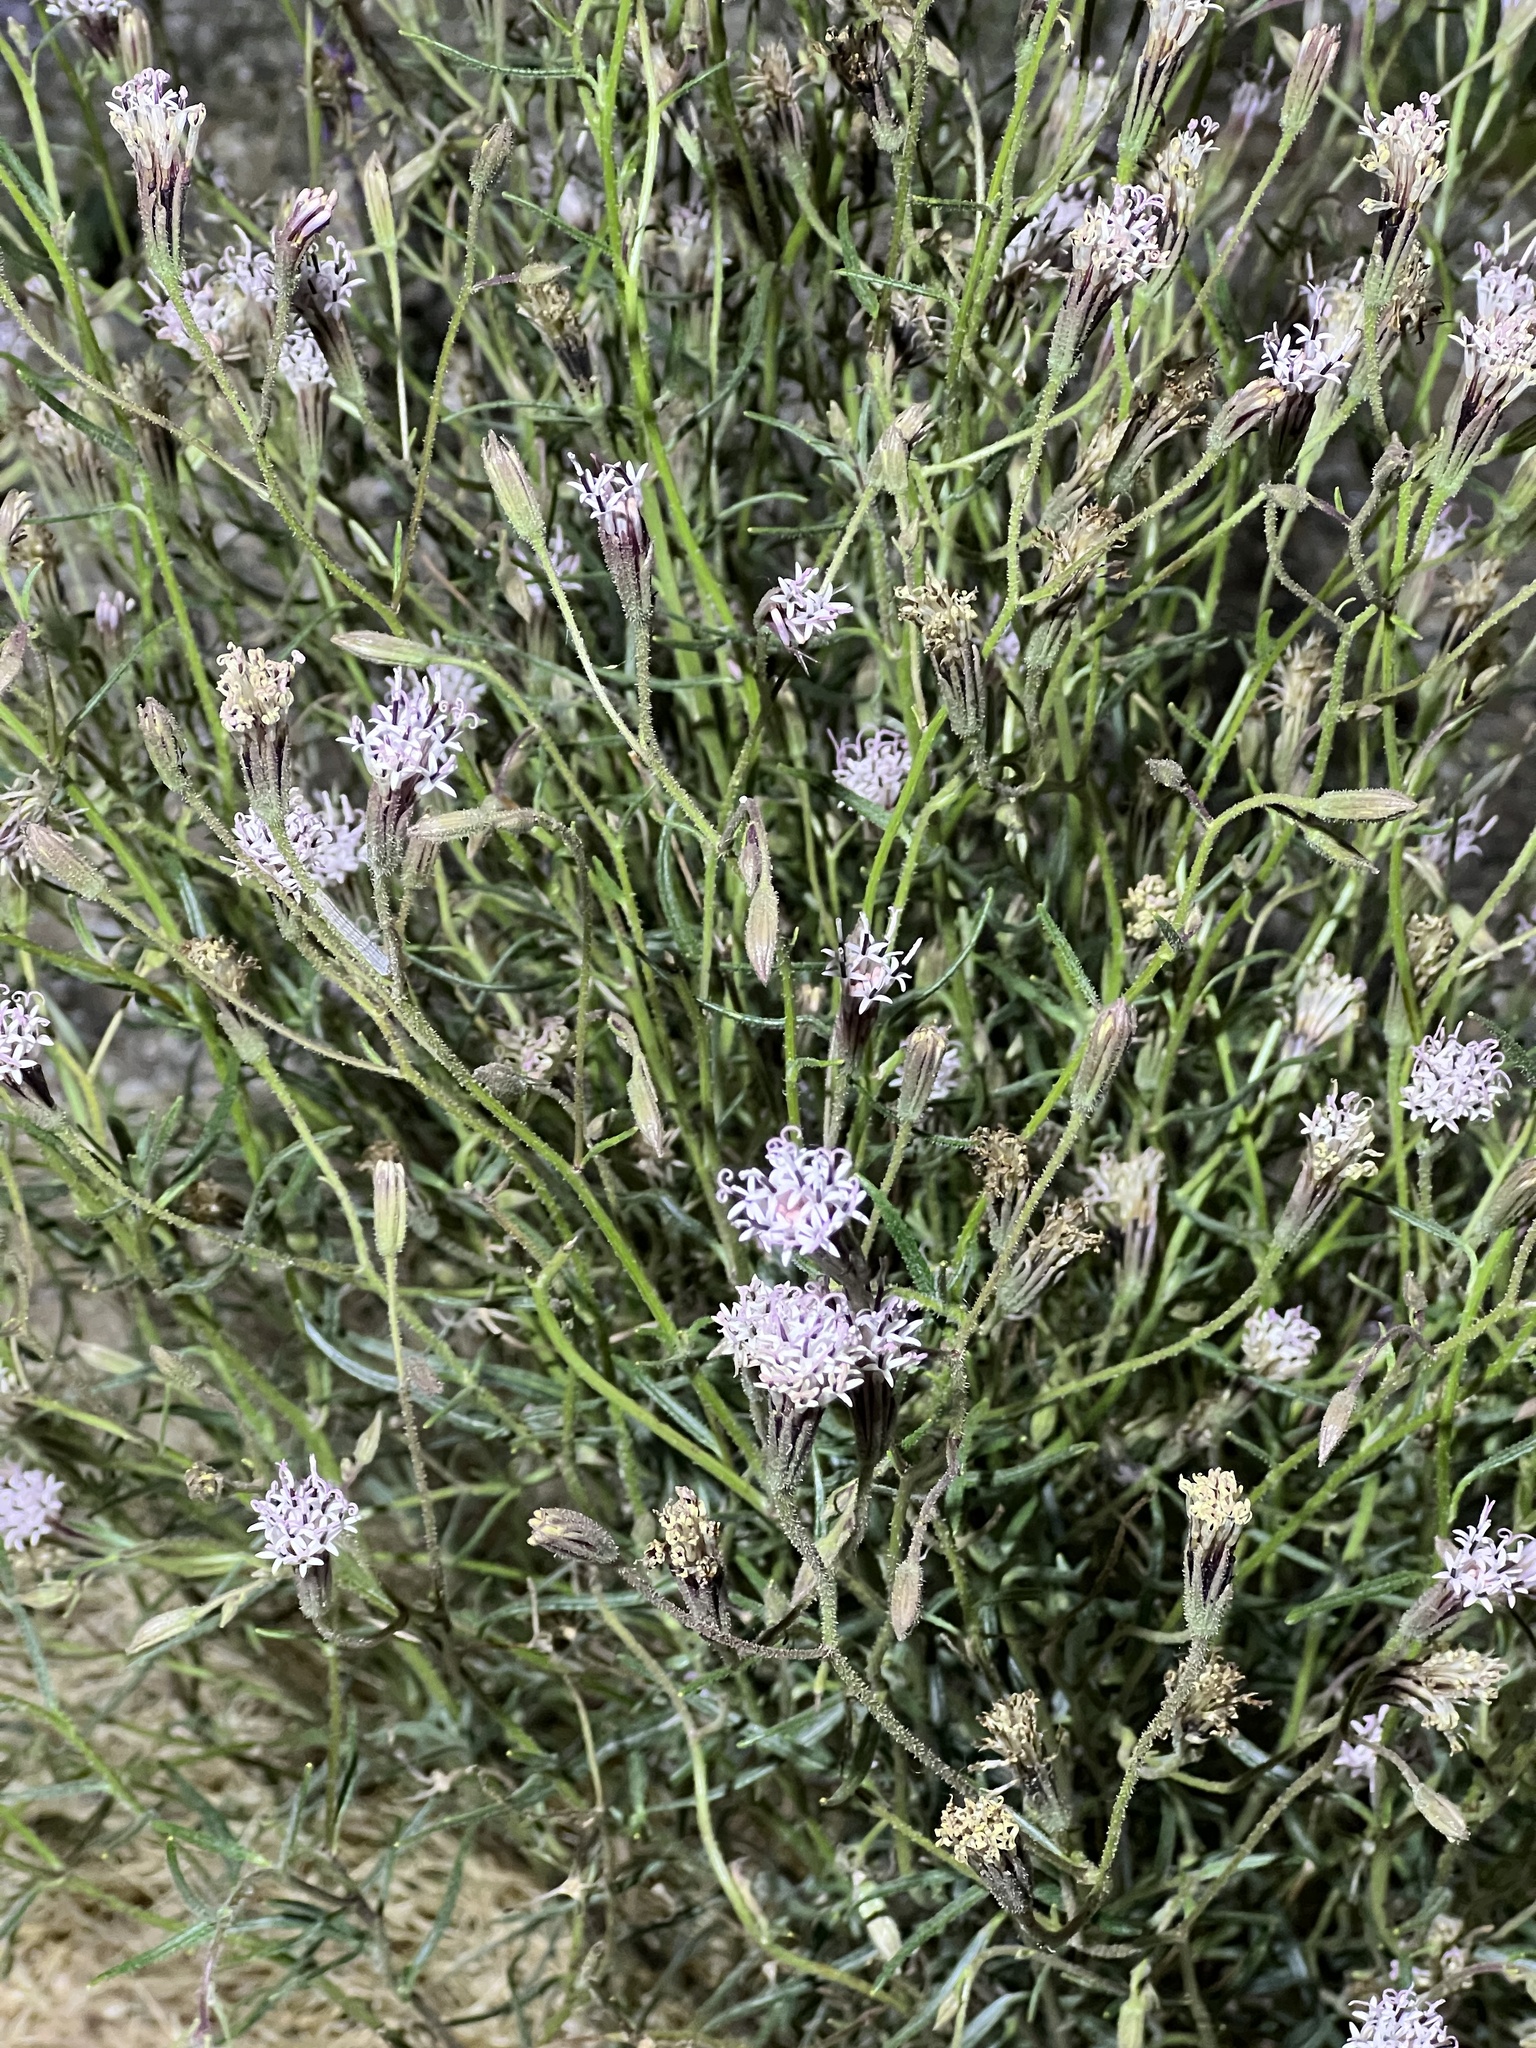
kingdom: Plantae
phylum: Tracheophyta
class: Magnoliopsida
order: Asterales
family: Asteraceae
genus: Palafoxia
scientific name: Palafoxia arida
